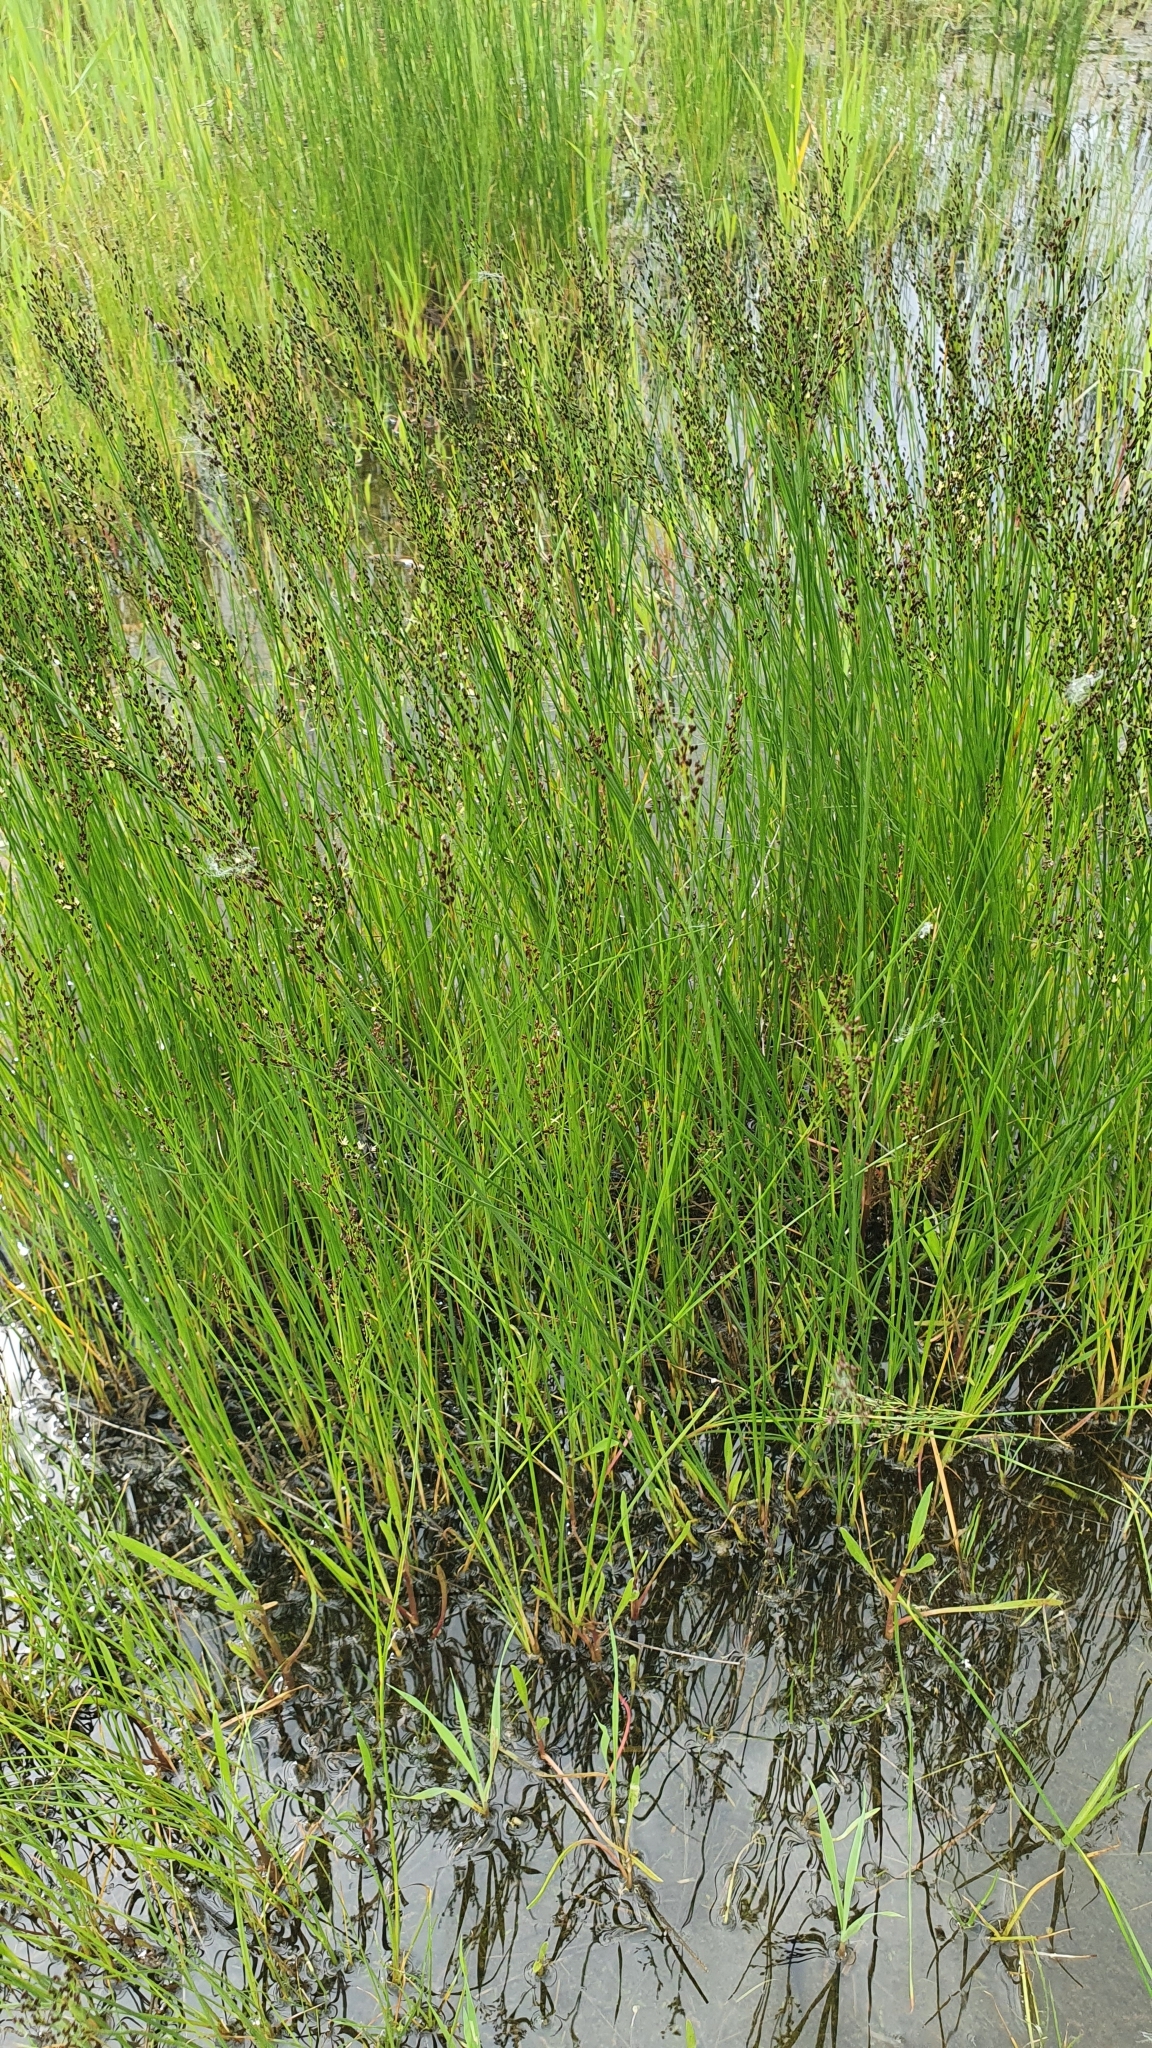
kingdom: Plantae
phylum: Tracheophyta
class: Liliopsida
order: Poales
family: Juncaceae
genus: Juncus
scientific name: Juncus gerardi
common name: Saltmarsh rush
